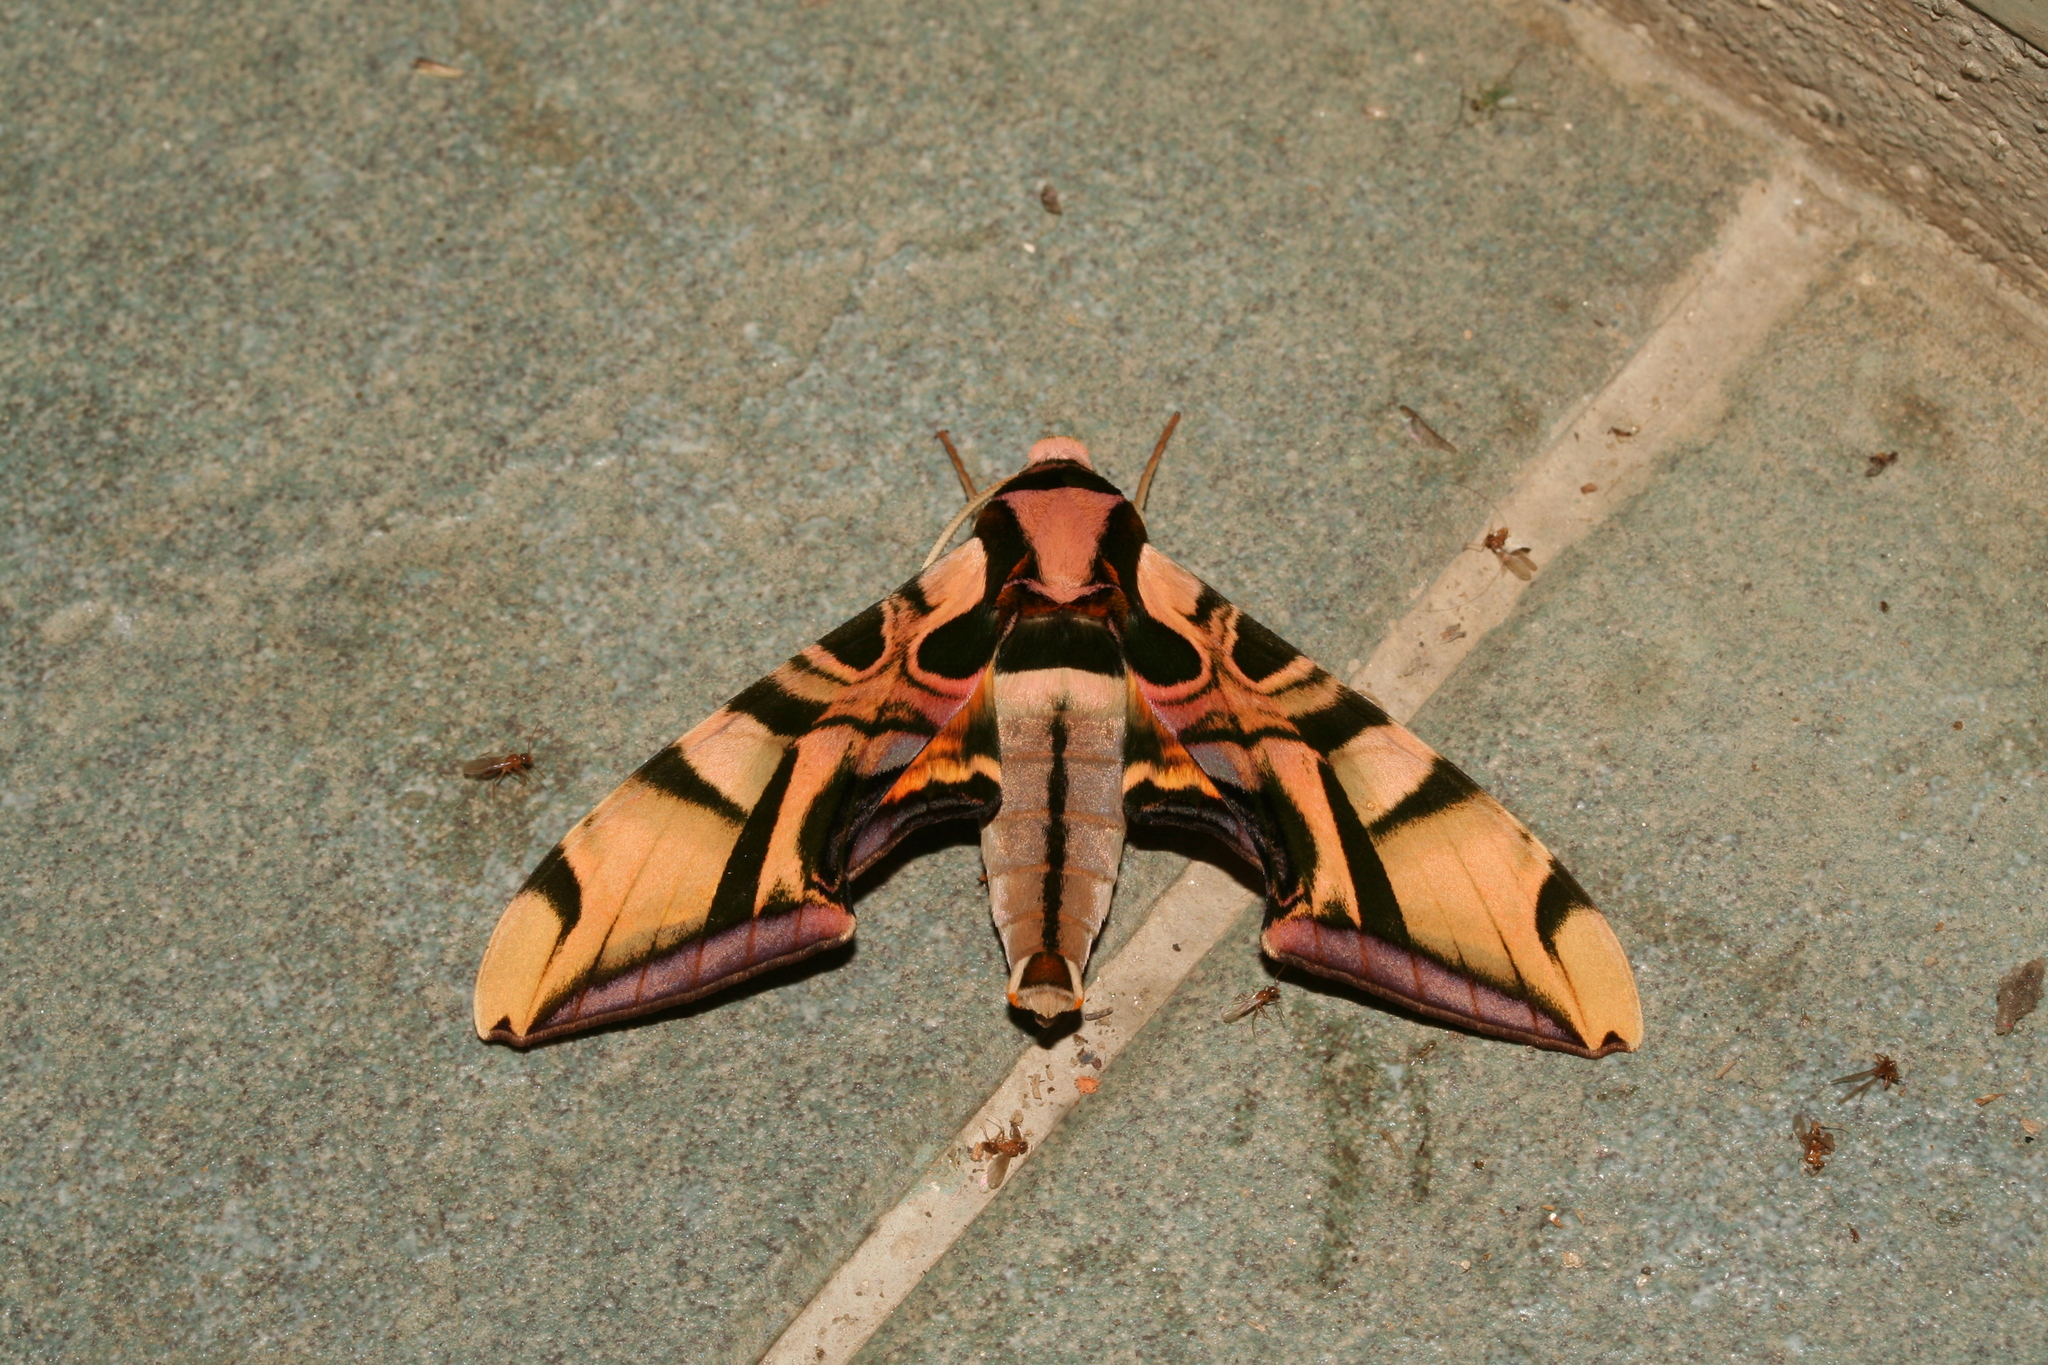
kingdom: Animalia
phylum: Arthropoda
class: Insecta
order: Lepidoptera
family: Sphingidae
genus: Batocnema
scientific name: Batocnema coquerelii
